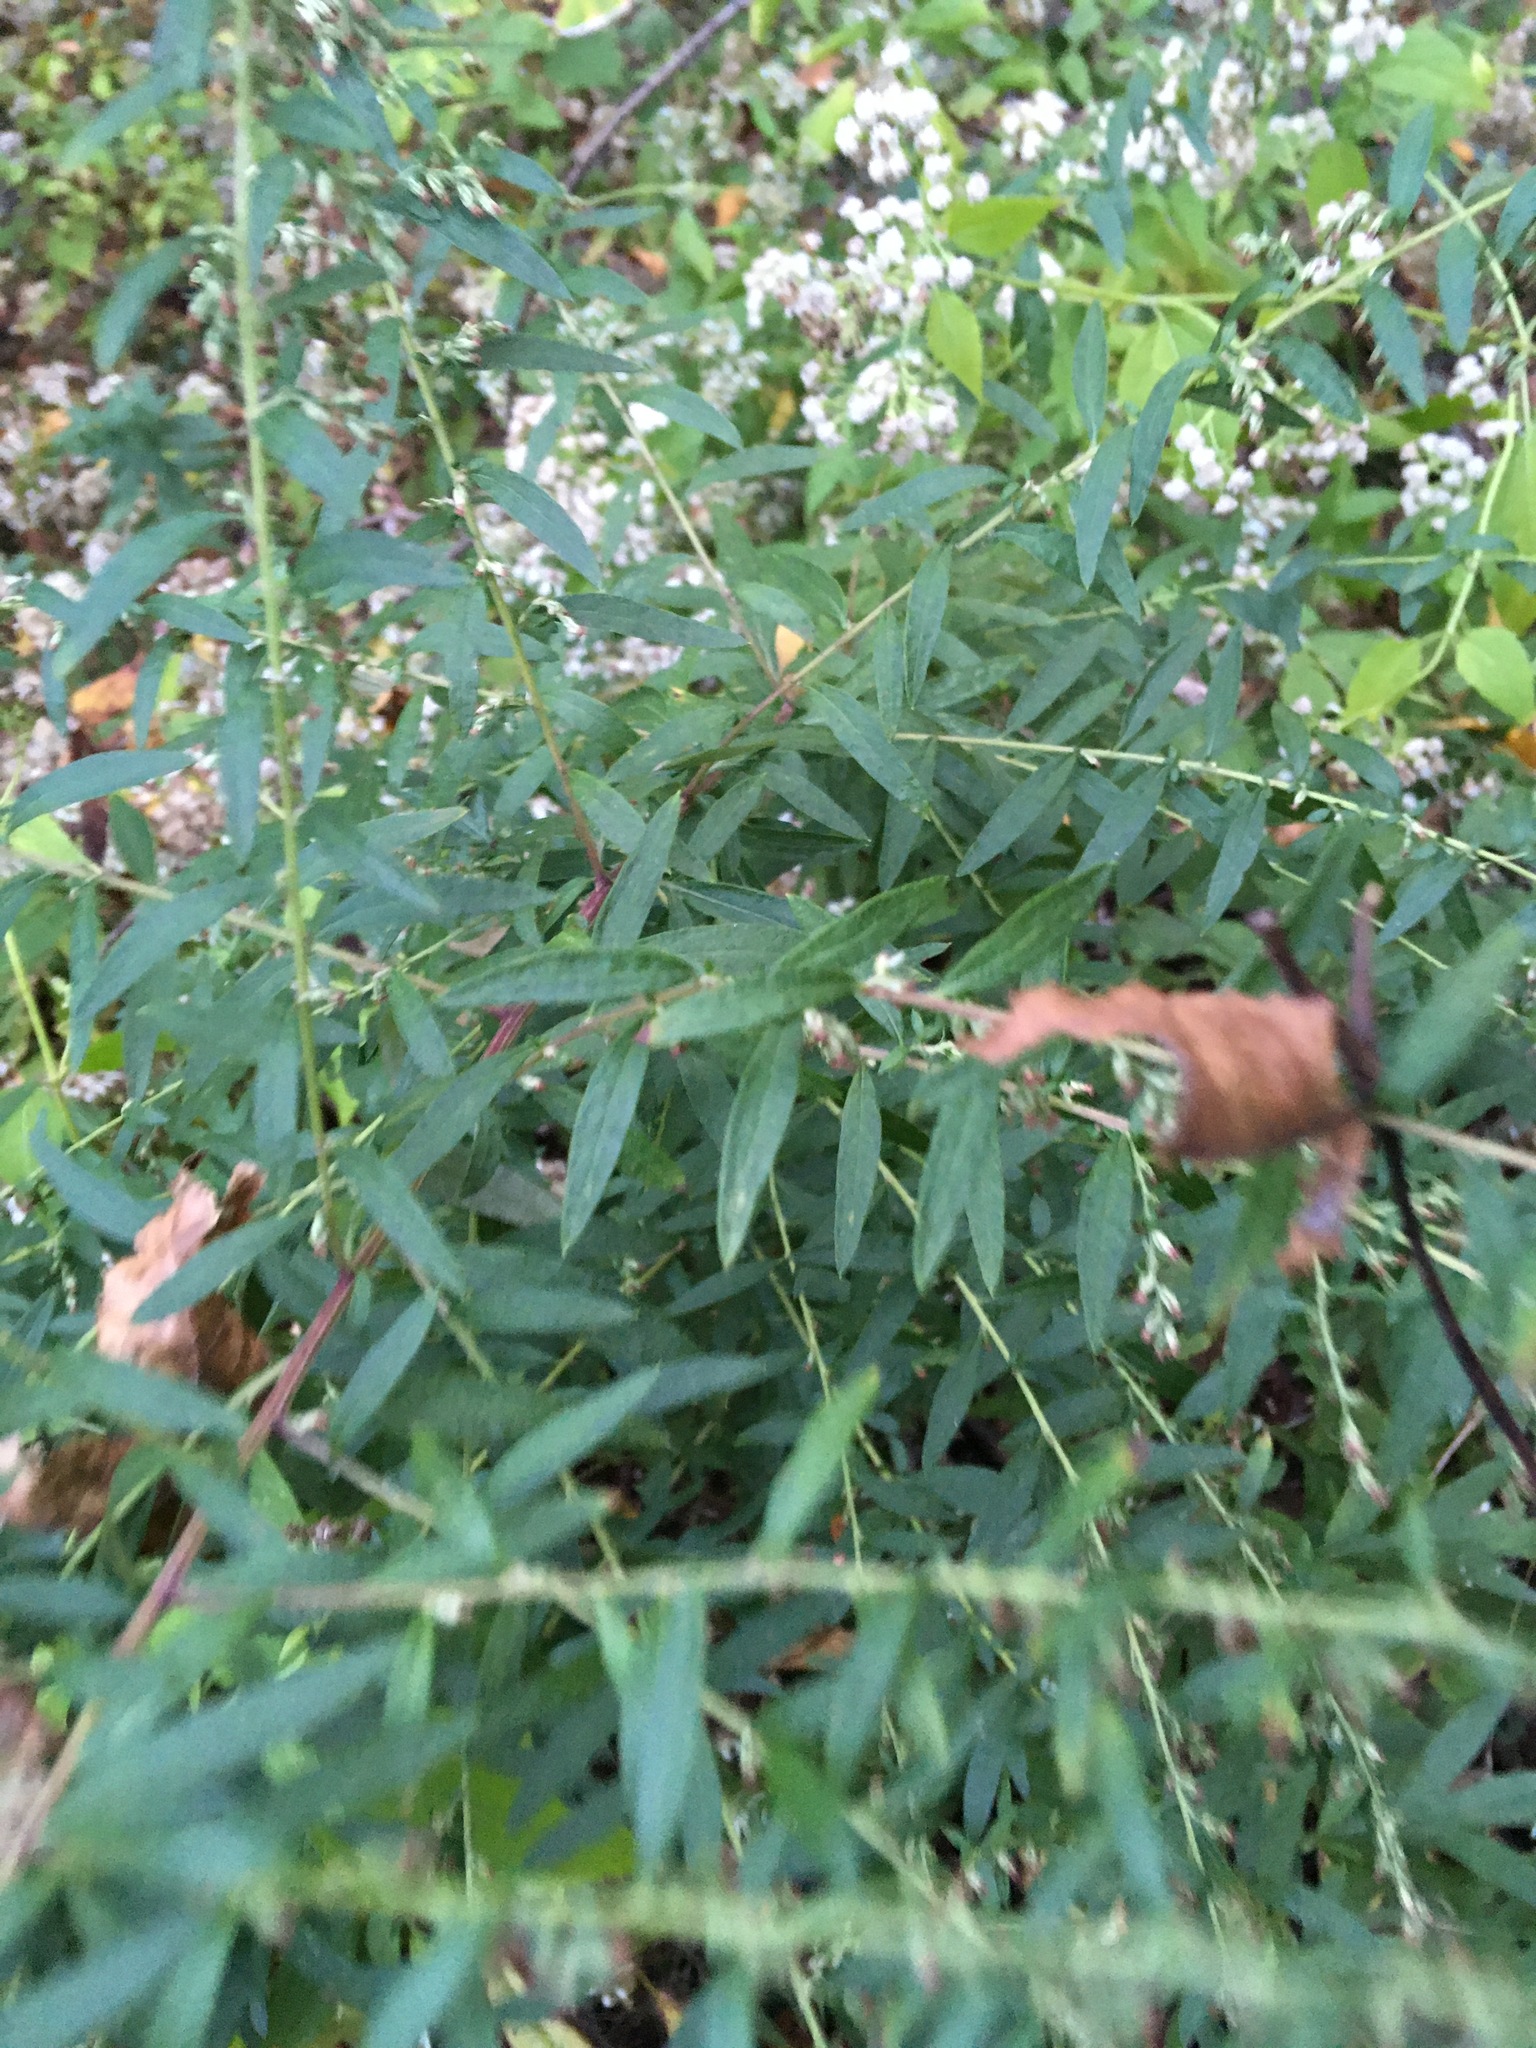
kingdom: Plantae
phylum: Tracheophyta
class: Magnoliopsida
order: Asterales
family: Asteraceae
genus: Artemisia
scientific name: Artemisia vulgaris
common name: Mugwort
